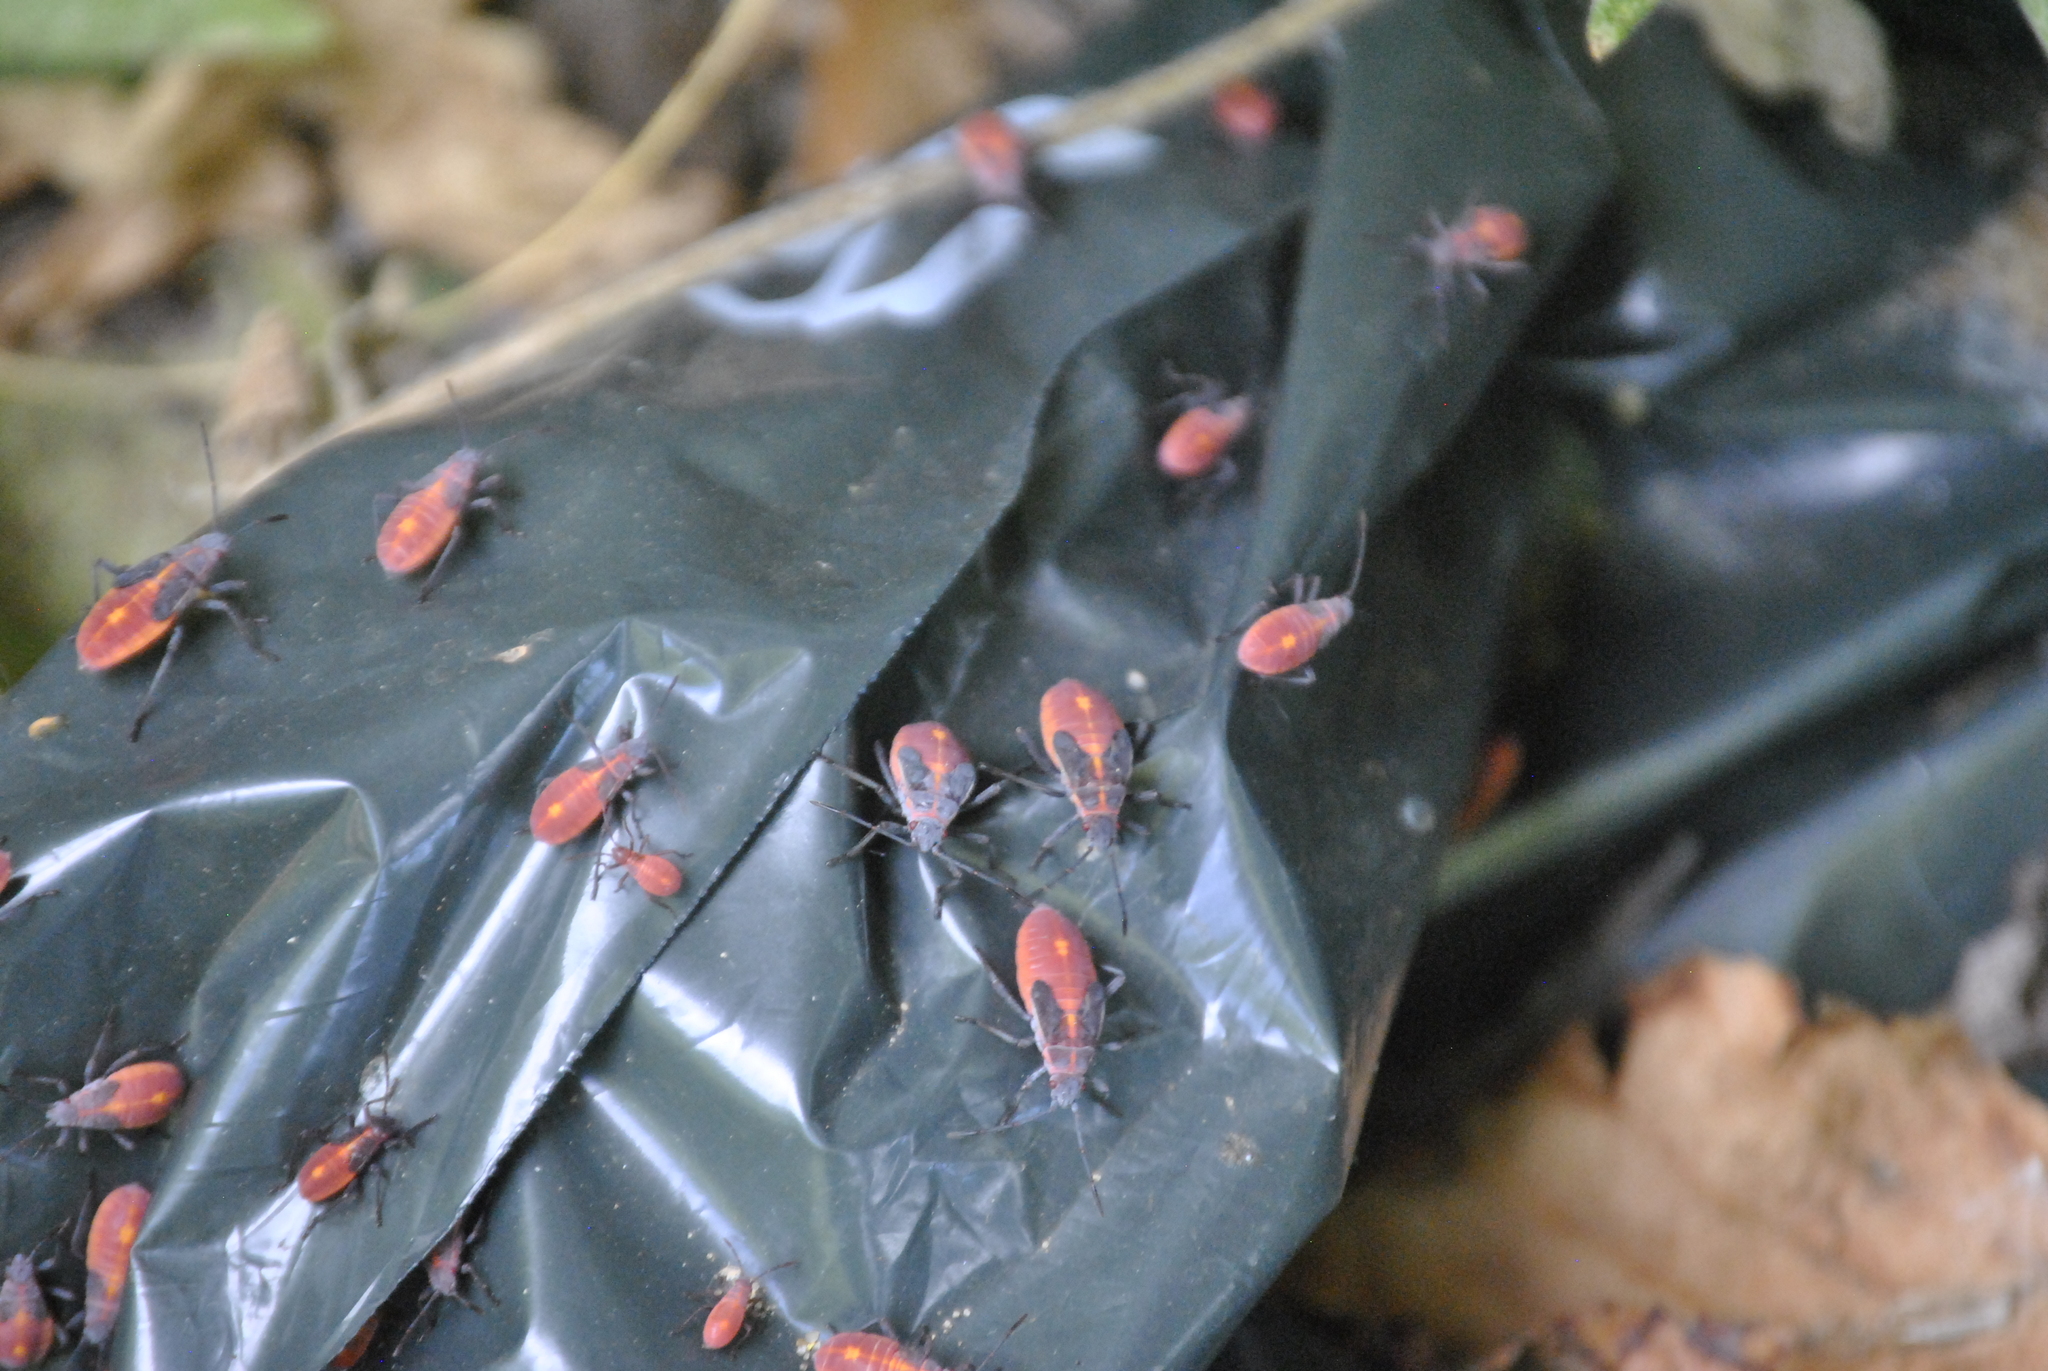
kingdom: Animalia
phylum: Arthropoda
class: Insecta
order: Hemiptera
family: Rhopalidae
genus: Boisea
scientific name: Boisea trivittata
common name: Boxelder bug
